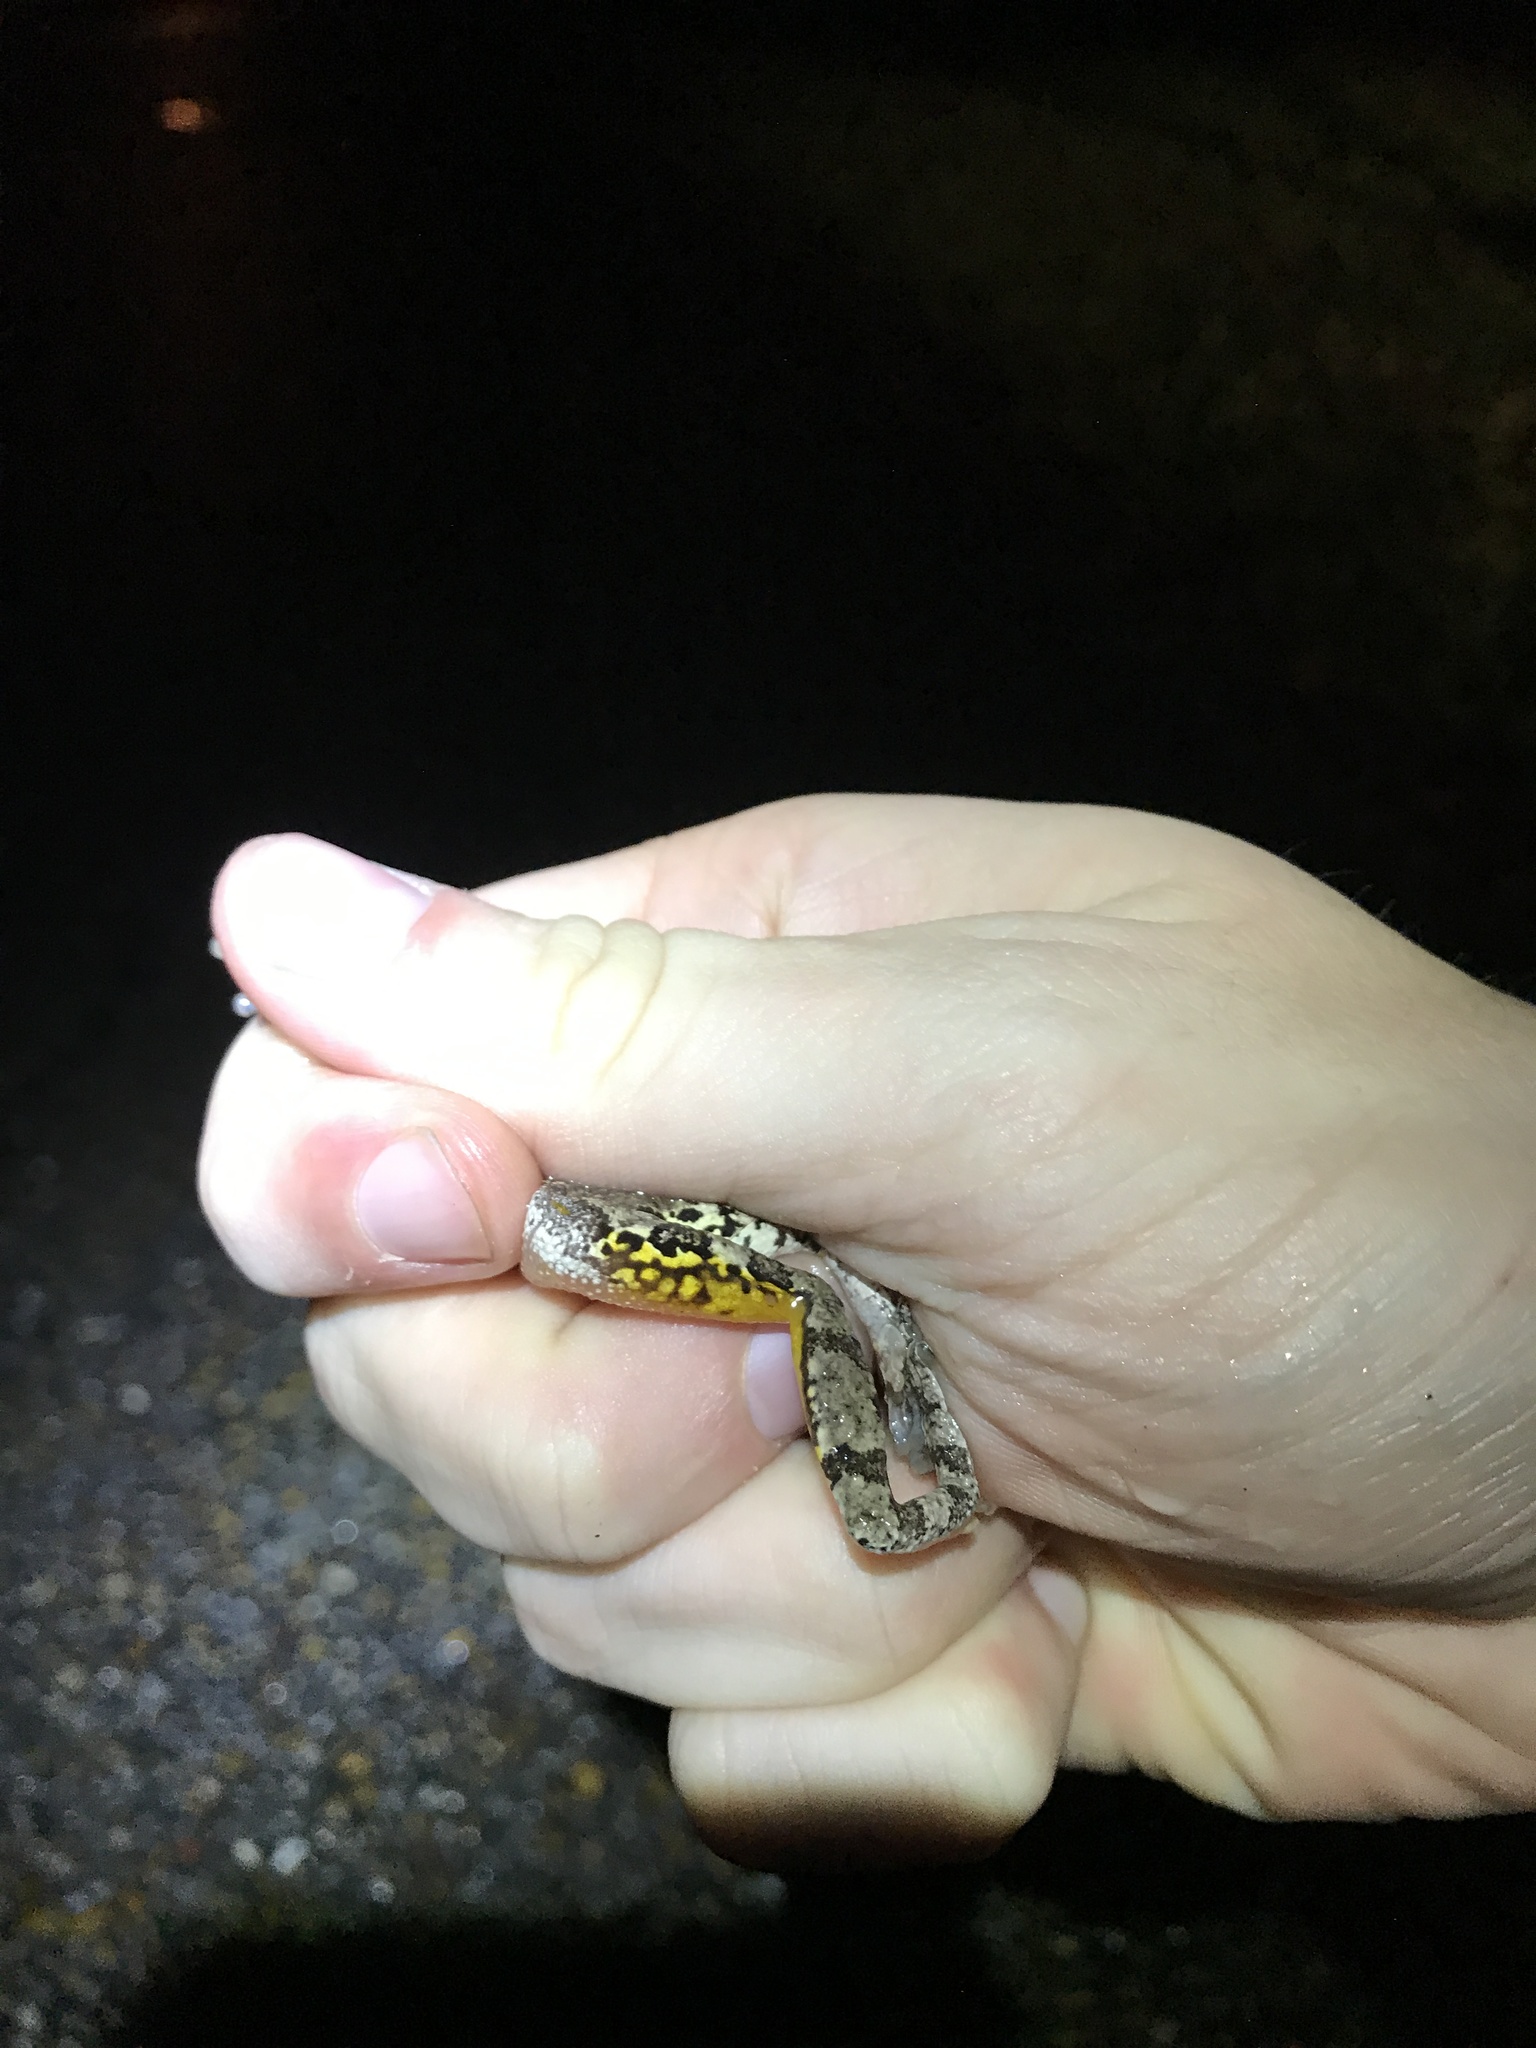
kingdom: Animalia
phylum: Chordata
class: Amphibia
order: Anura
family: Hylidae
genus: Dryophytes
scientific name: Dryophytes chrysoscelis
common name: Cope's gray treefrog
